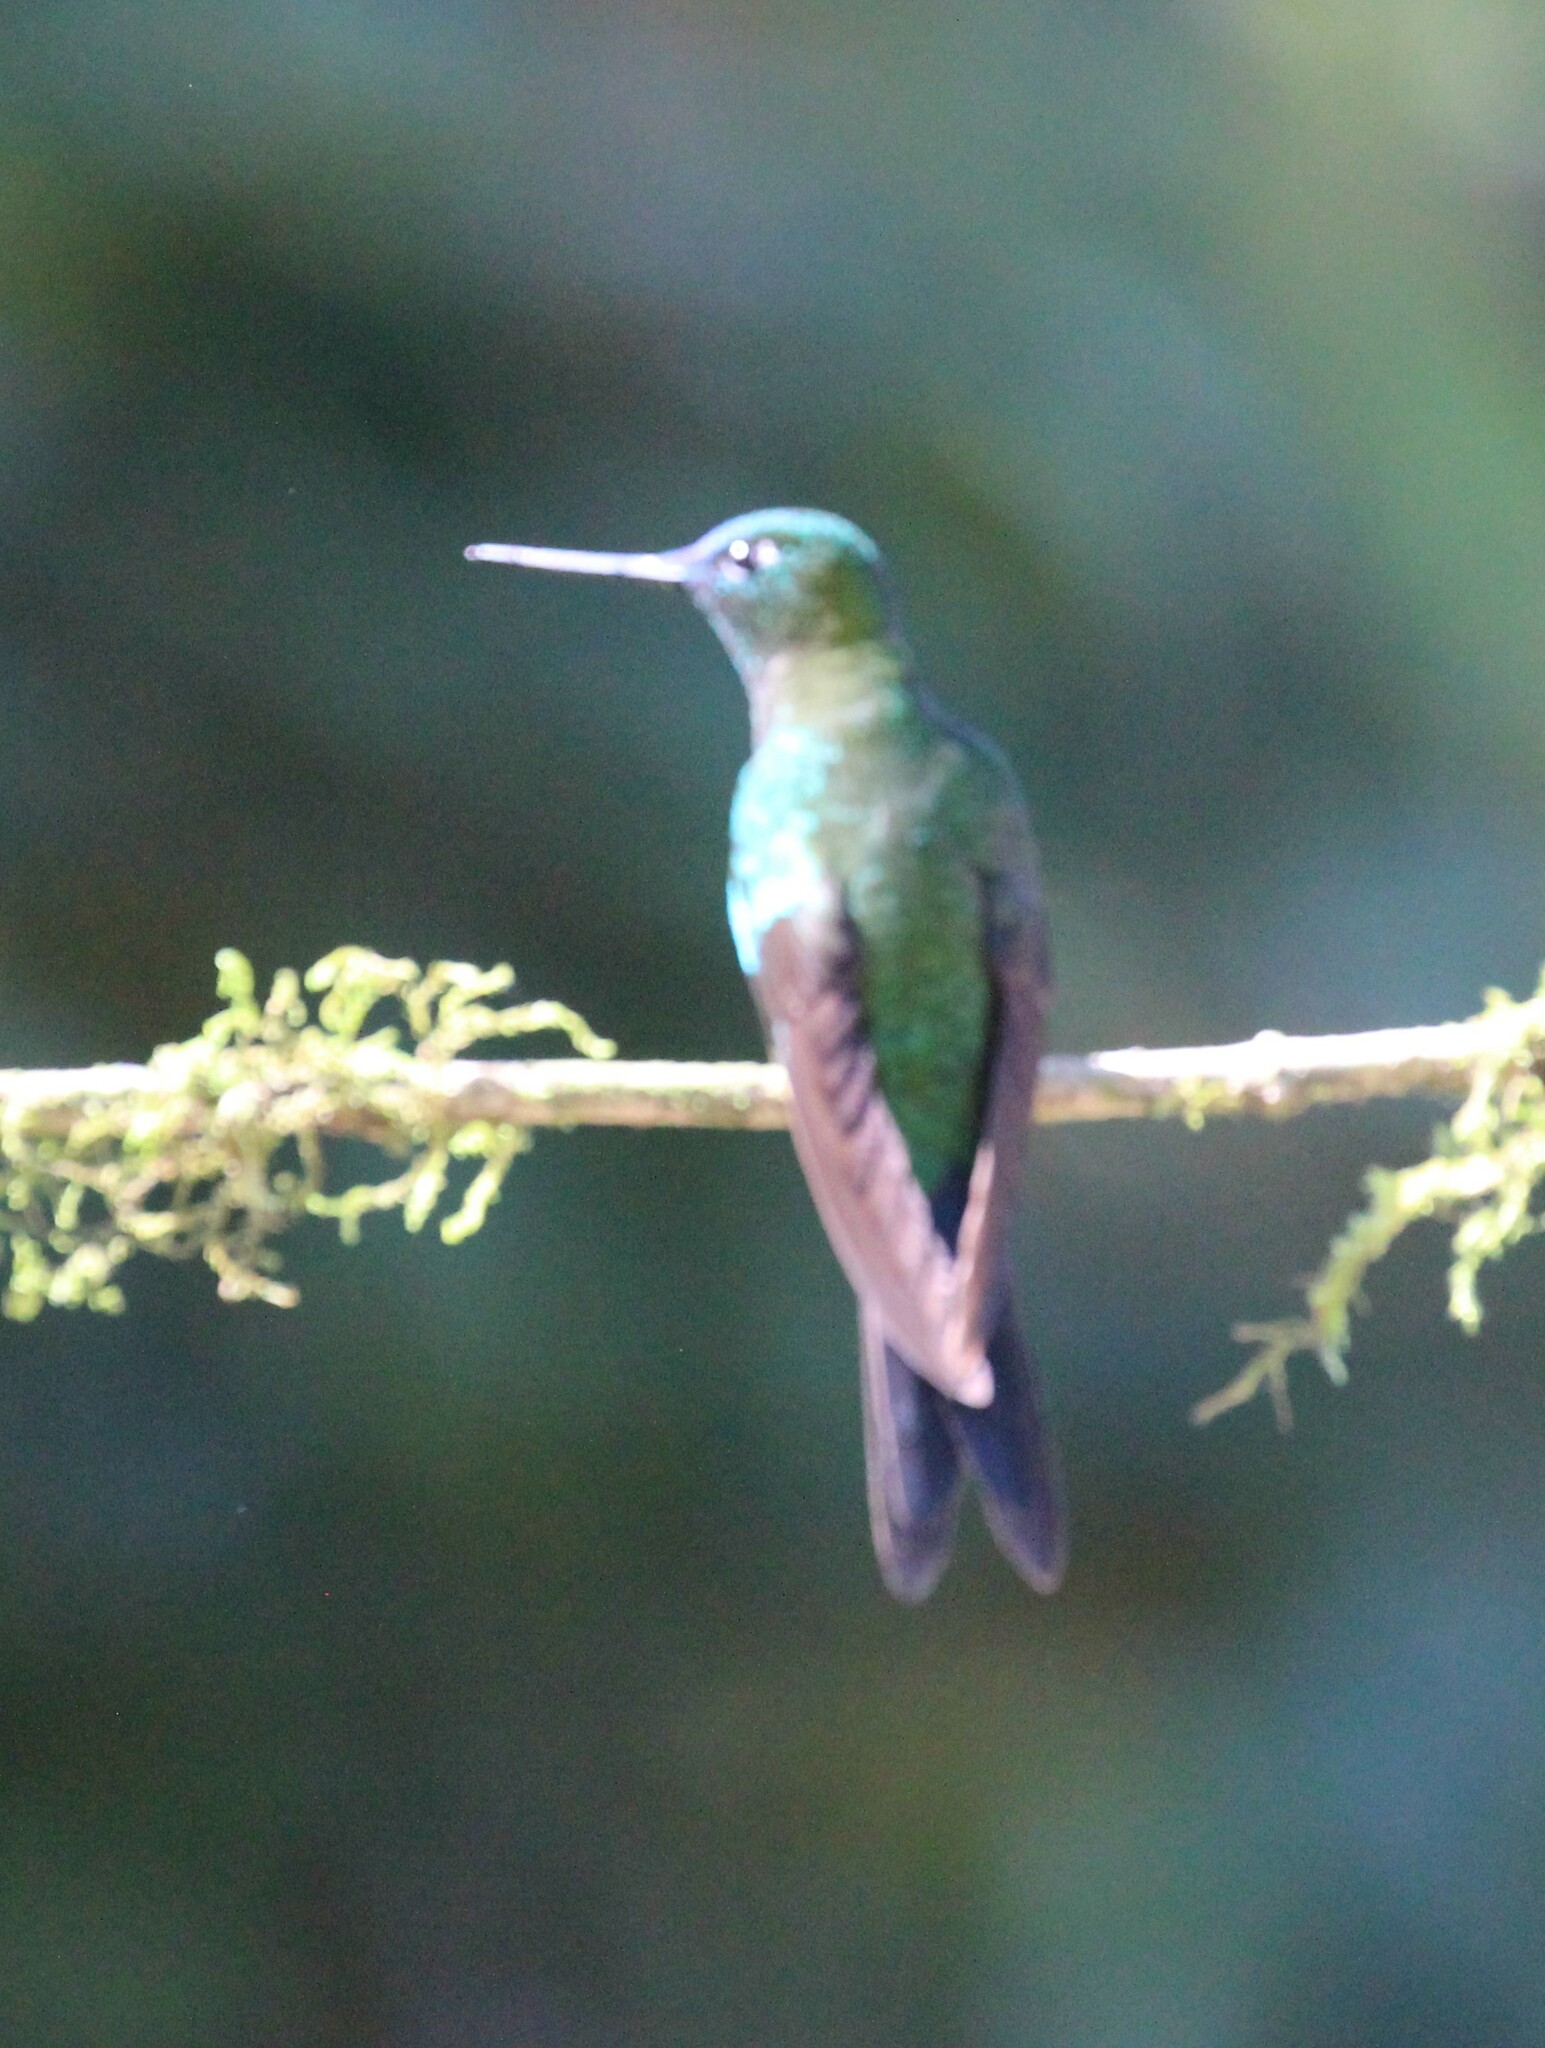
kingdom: Animalia
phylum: Chordata
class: Aves
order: Apodiformes
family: Trochilidae
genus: Eriocnemis
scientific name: Eriocnemis luciani
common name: Sapphire-vented puffleg
